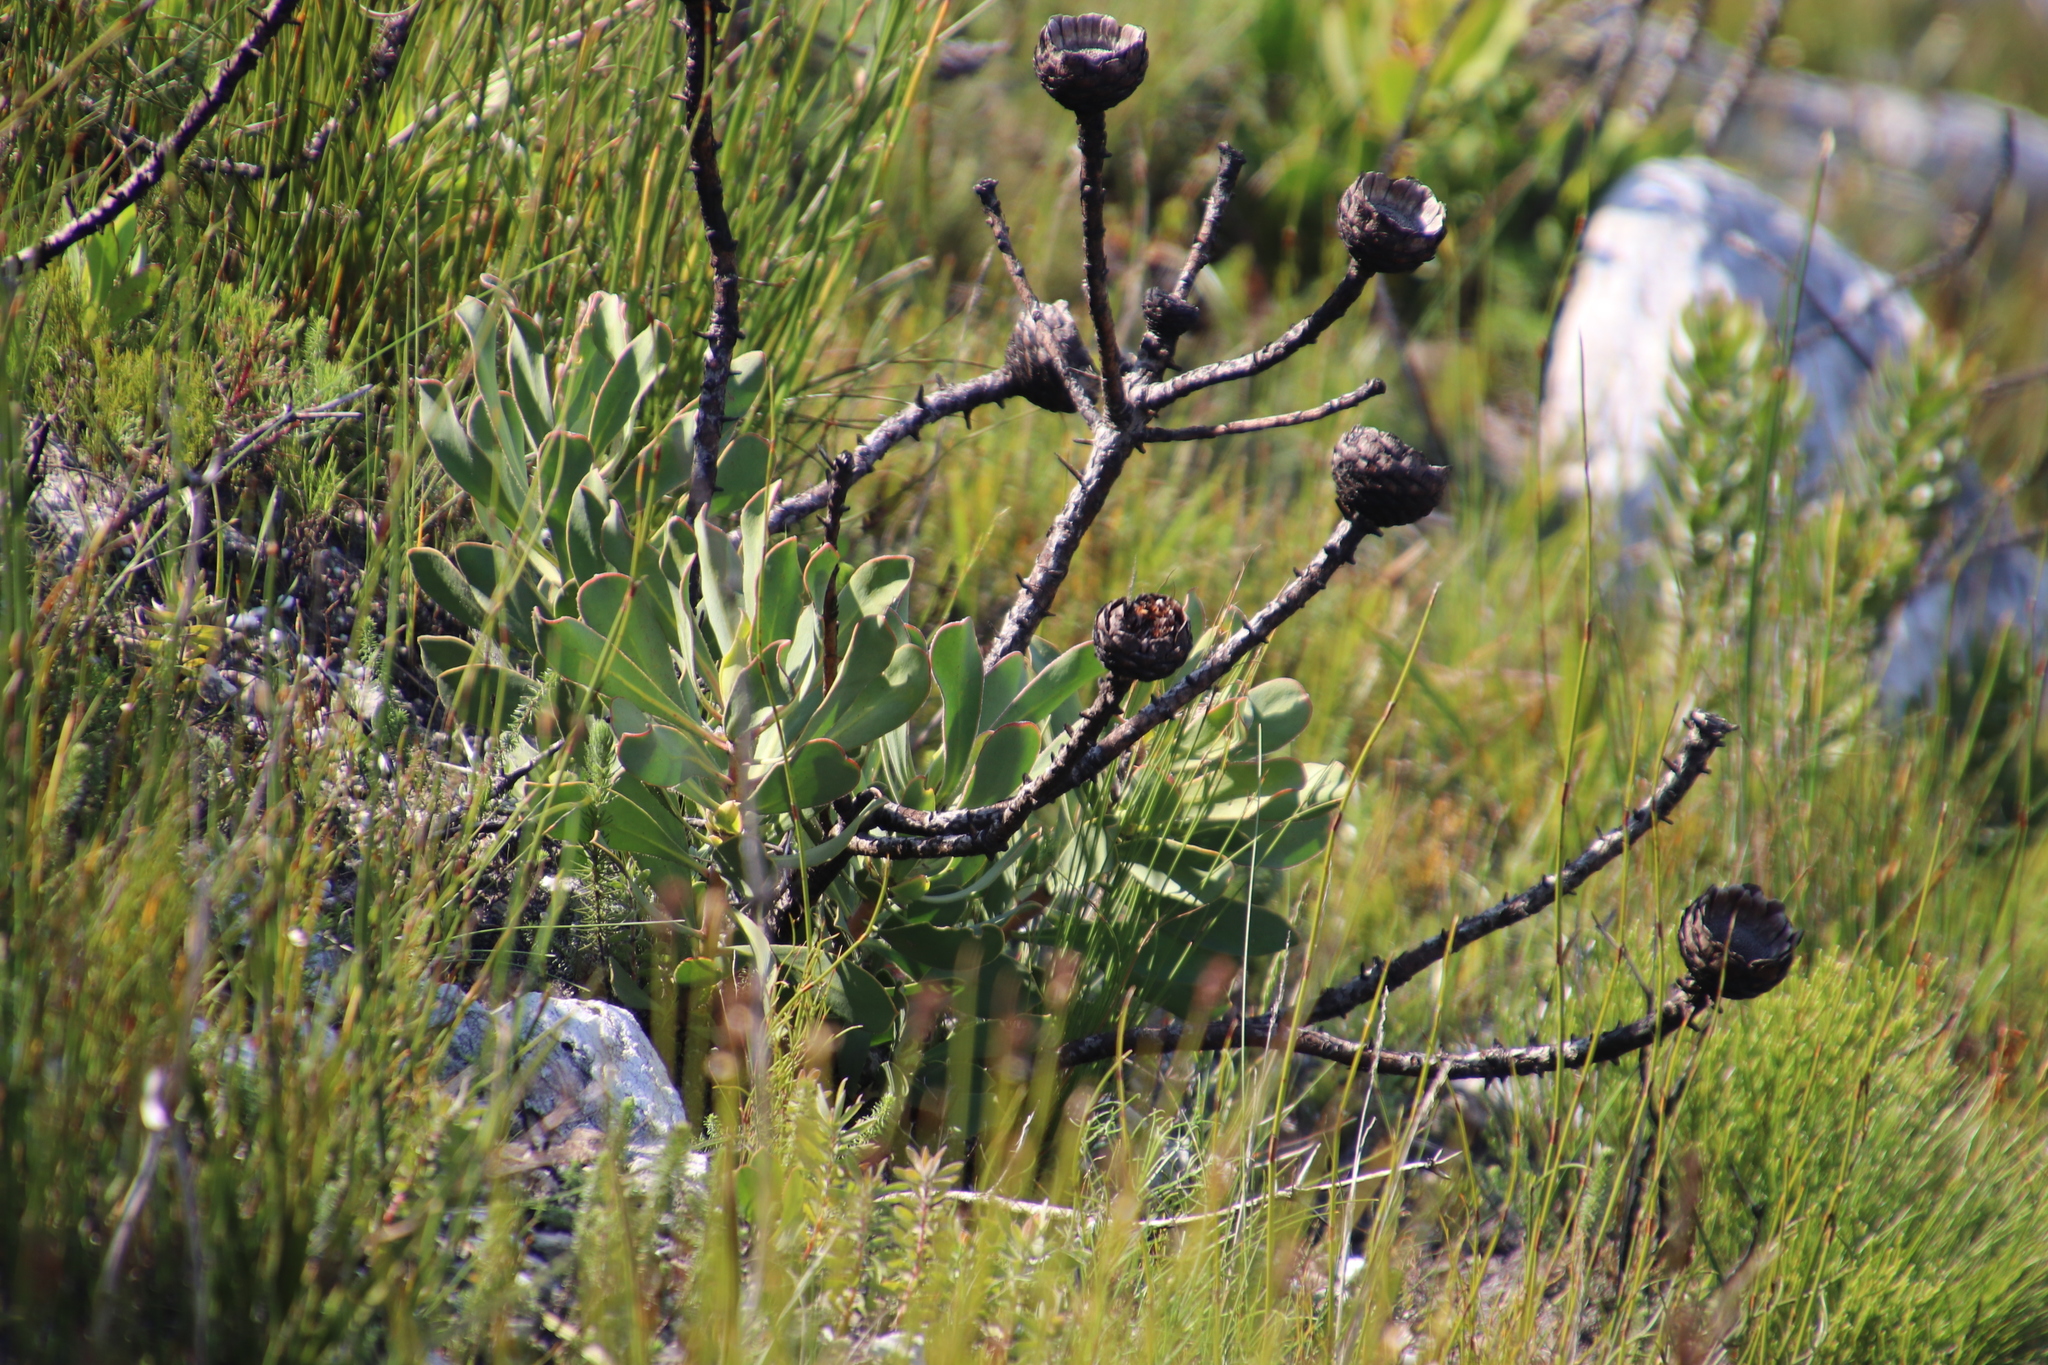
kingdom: Plantae
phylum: Tracheophyta
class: Magnoliopsida
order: Proteales
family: Proteaceae
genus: Protea
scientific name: Protea speciosa
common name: Brown-beard sugarbush
